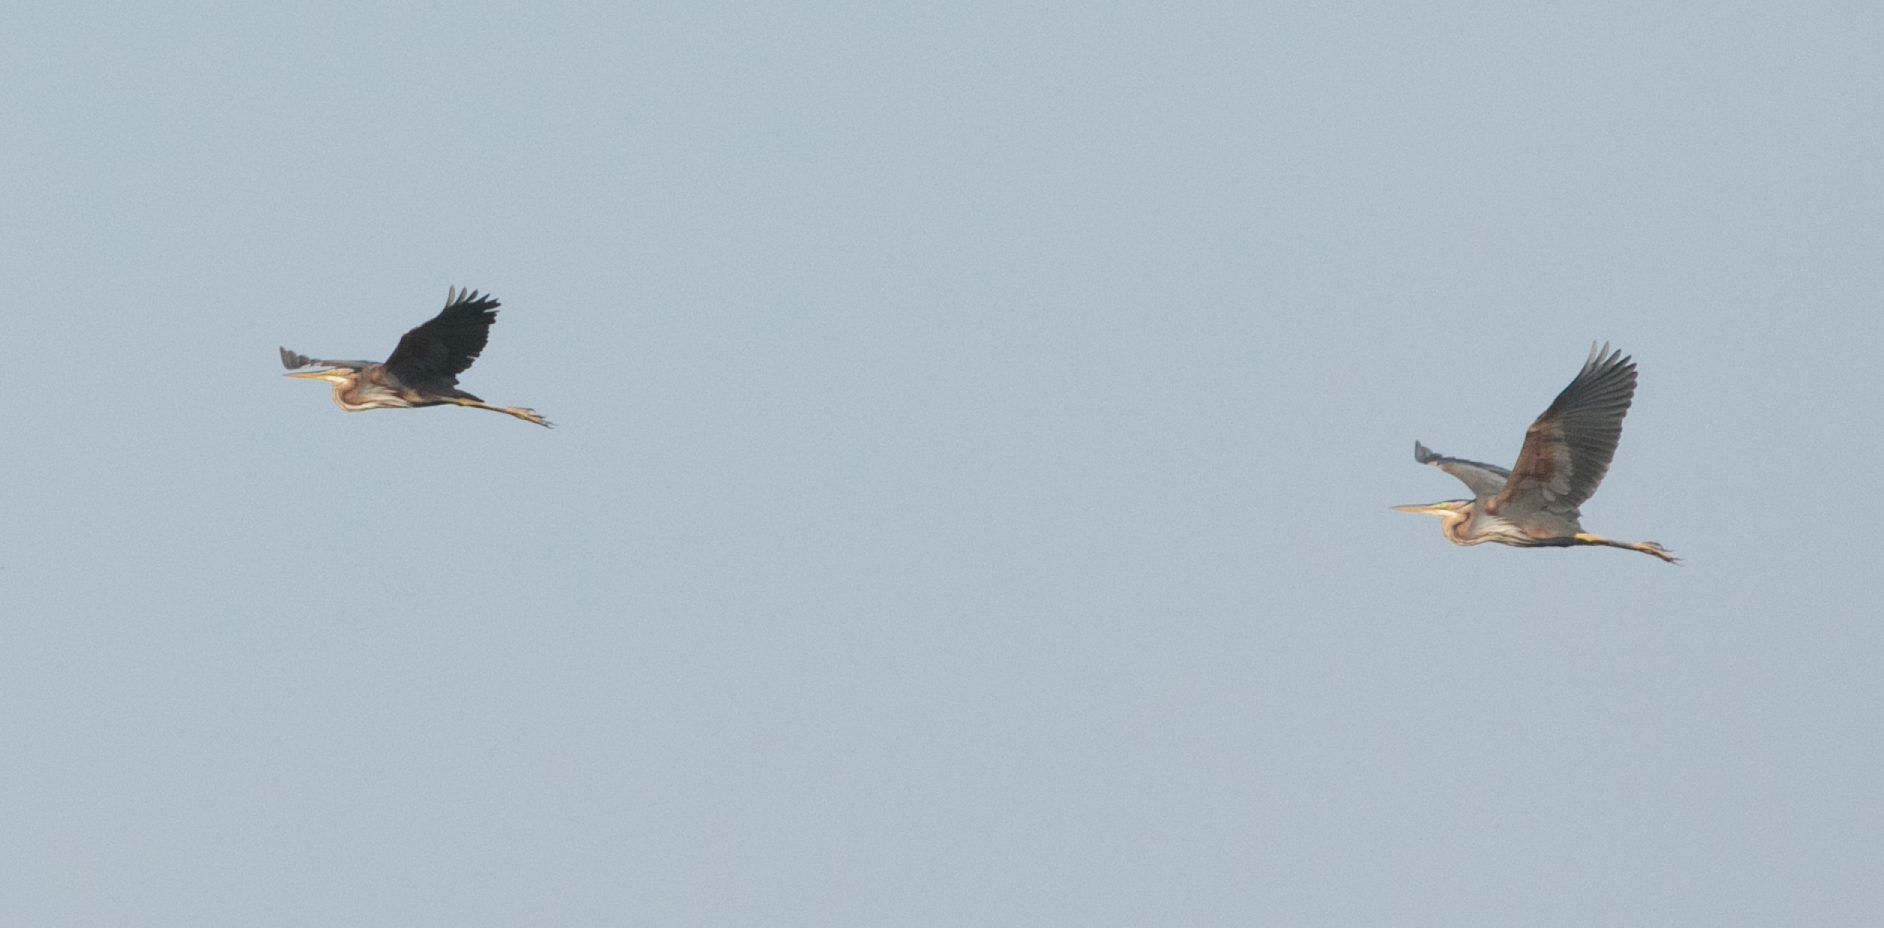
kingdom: Animalia
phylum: Chordata
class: Aves
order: Pelecaniformes
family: Ardeidae
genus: Ardea
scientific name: Ardea purpurea
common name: Purple heron
